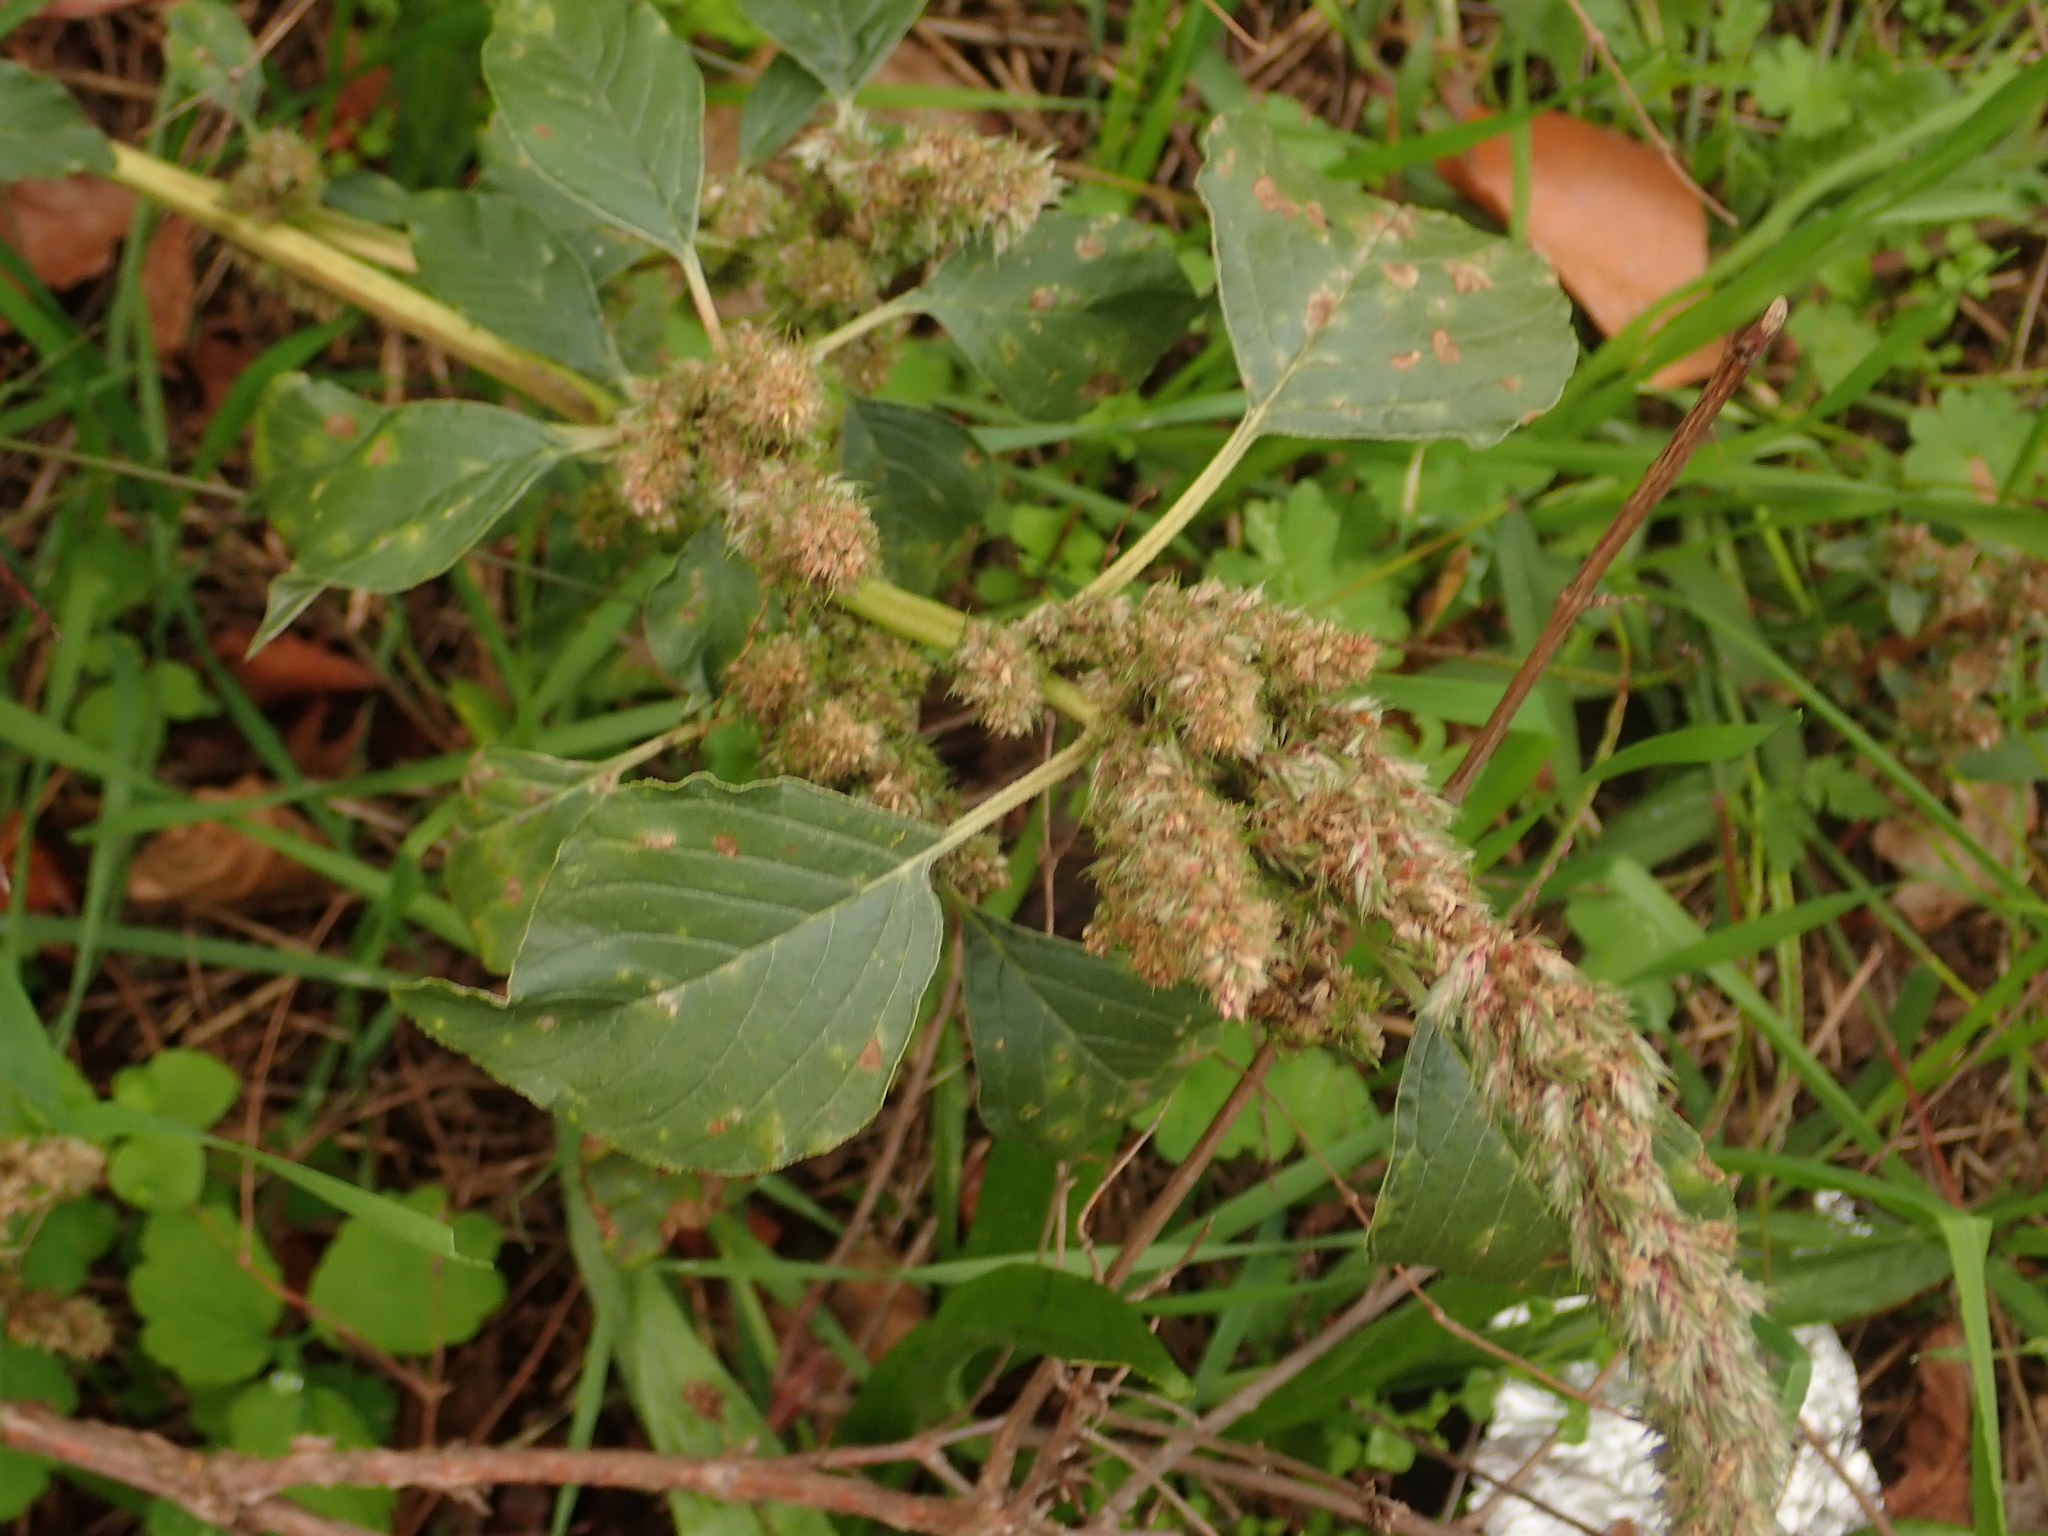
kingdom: Plantae
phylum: Tracheophyta
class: Magnoliopsida
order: Caryophyllales
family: Amaranthaceae
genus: Amaranthus
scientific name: Amaranthus retroflexus
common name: Redroot amaranth
